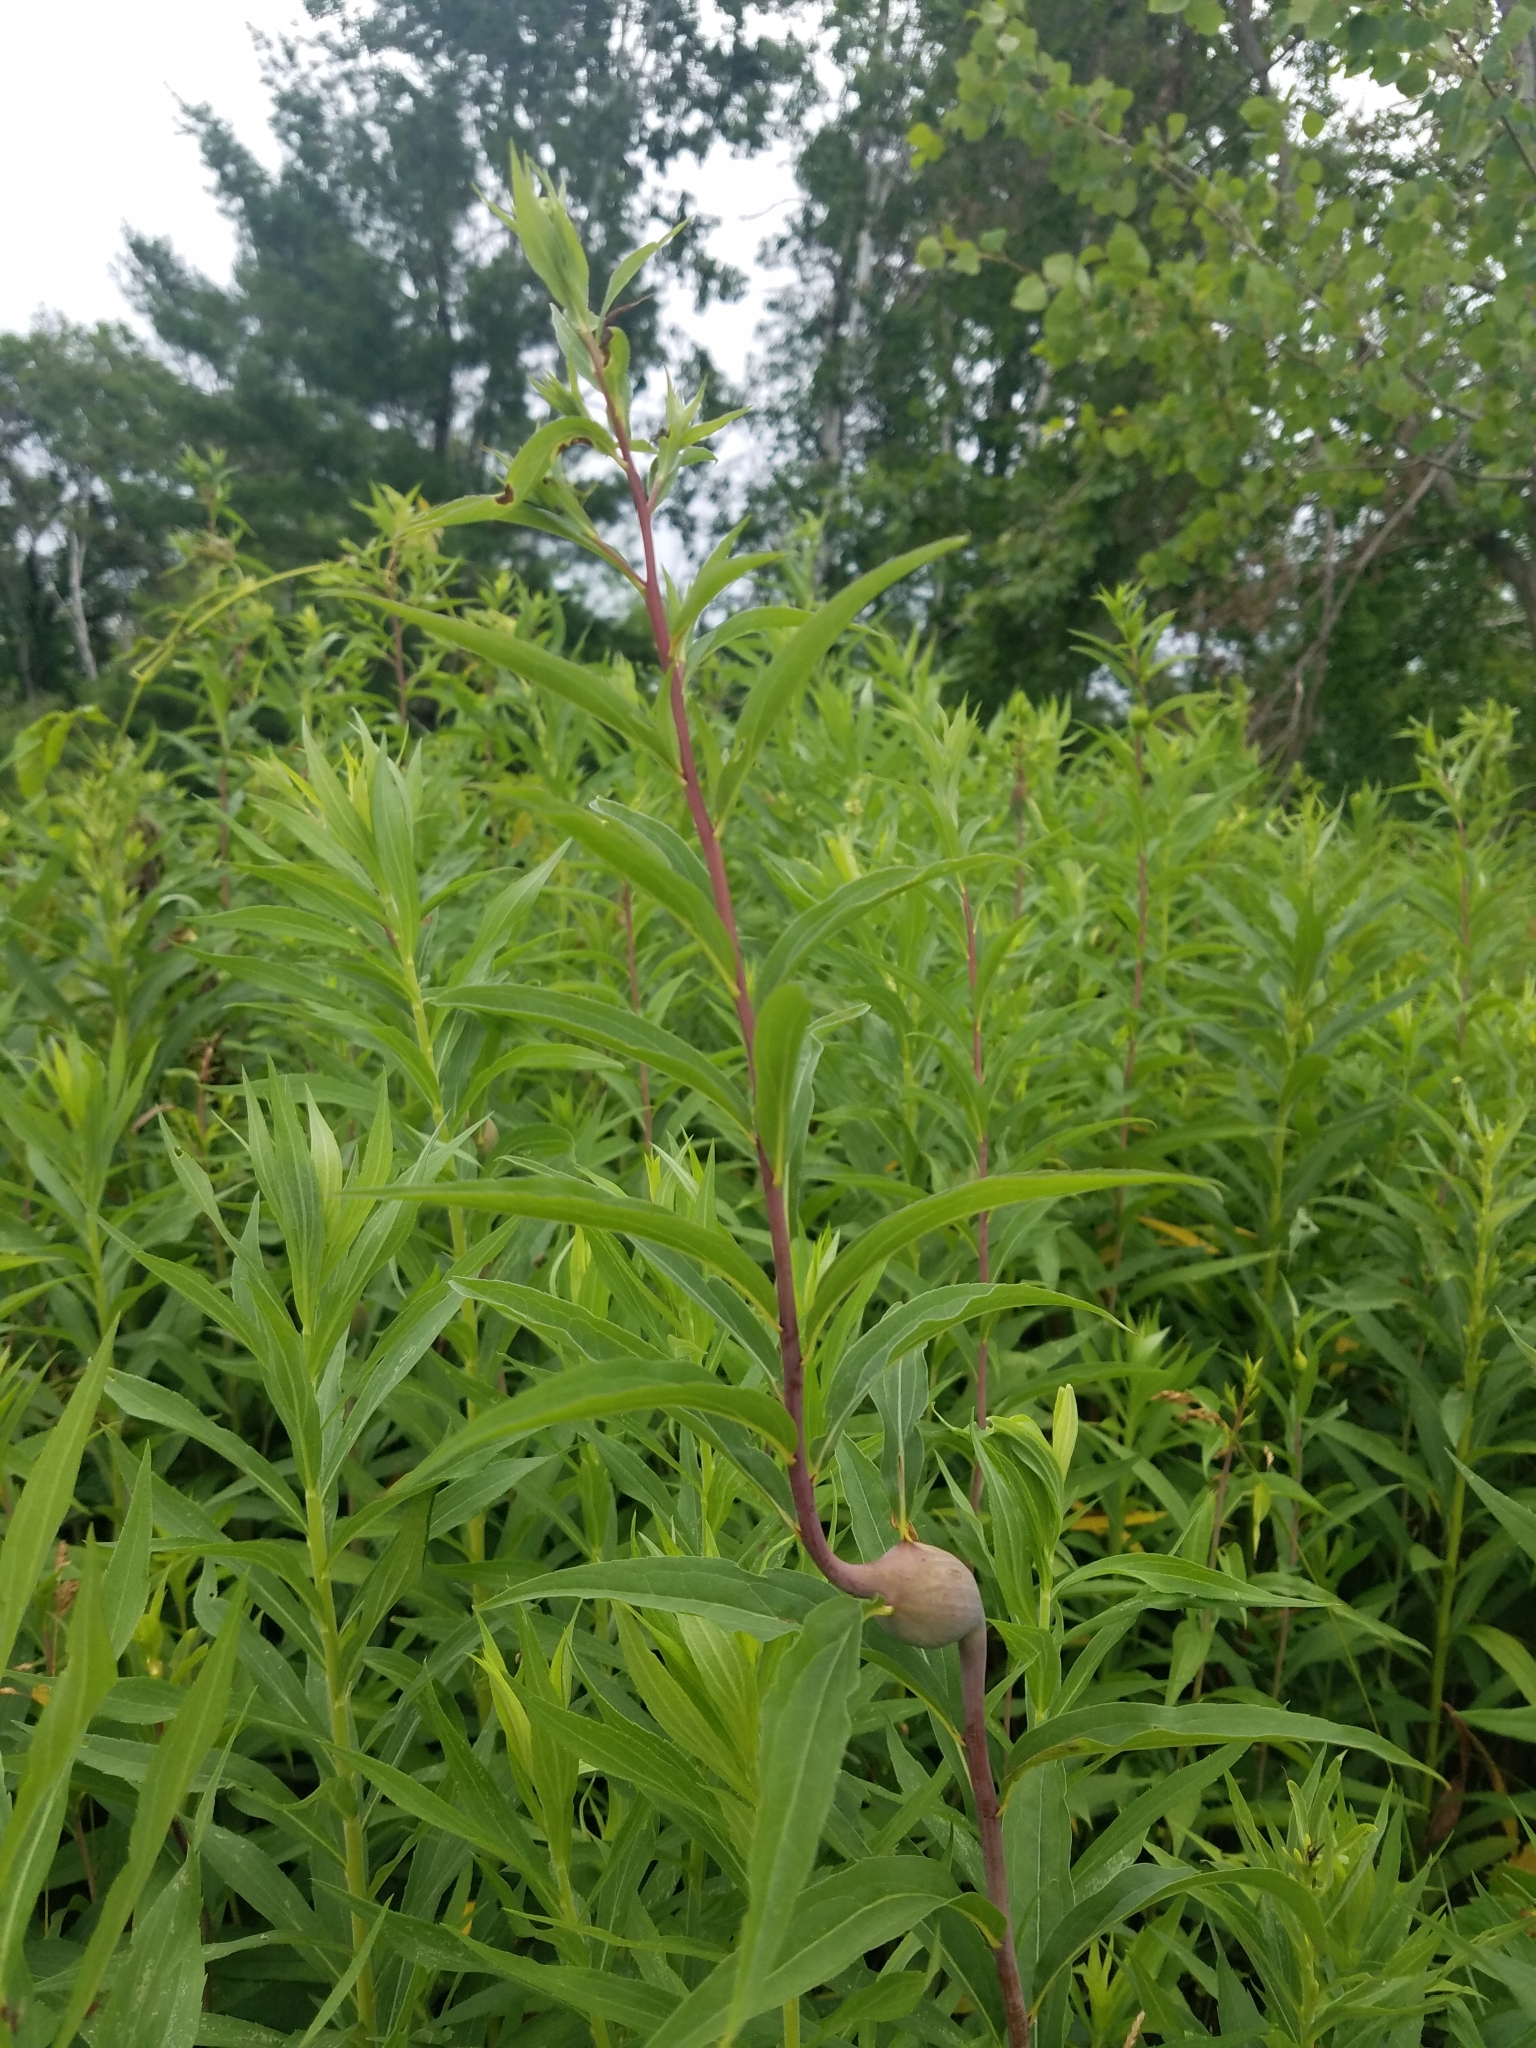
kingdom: Animalia
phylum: Arthropoda
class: Insecta
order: Diptera
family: Tephritidae
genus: Eurosta
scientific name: Eurosta solidaginis
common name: Goldenrod gall fly
